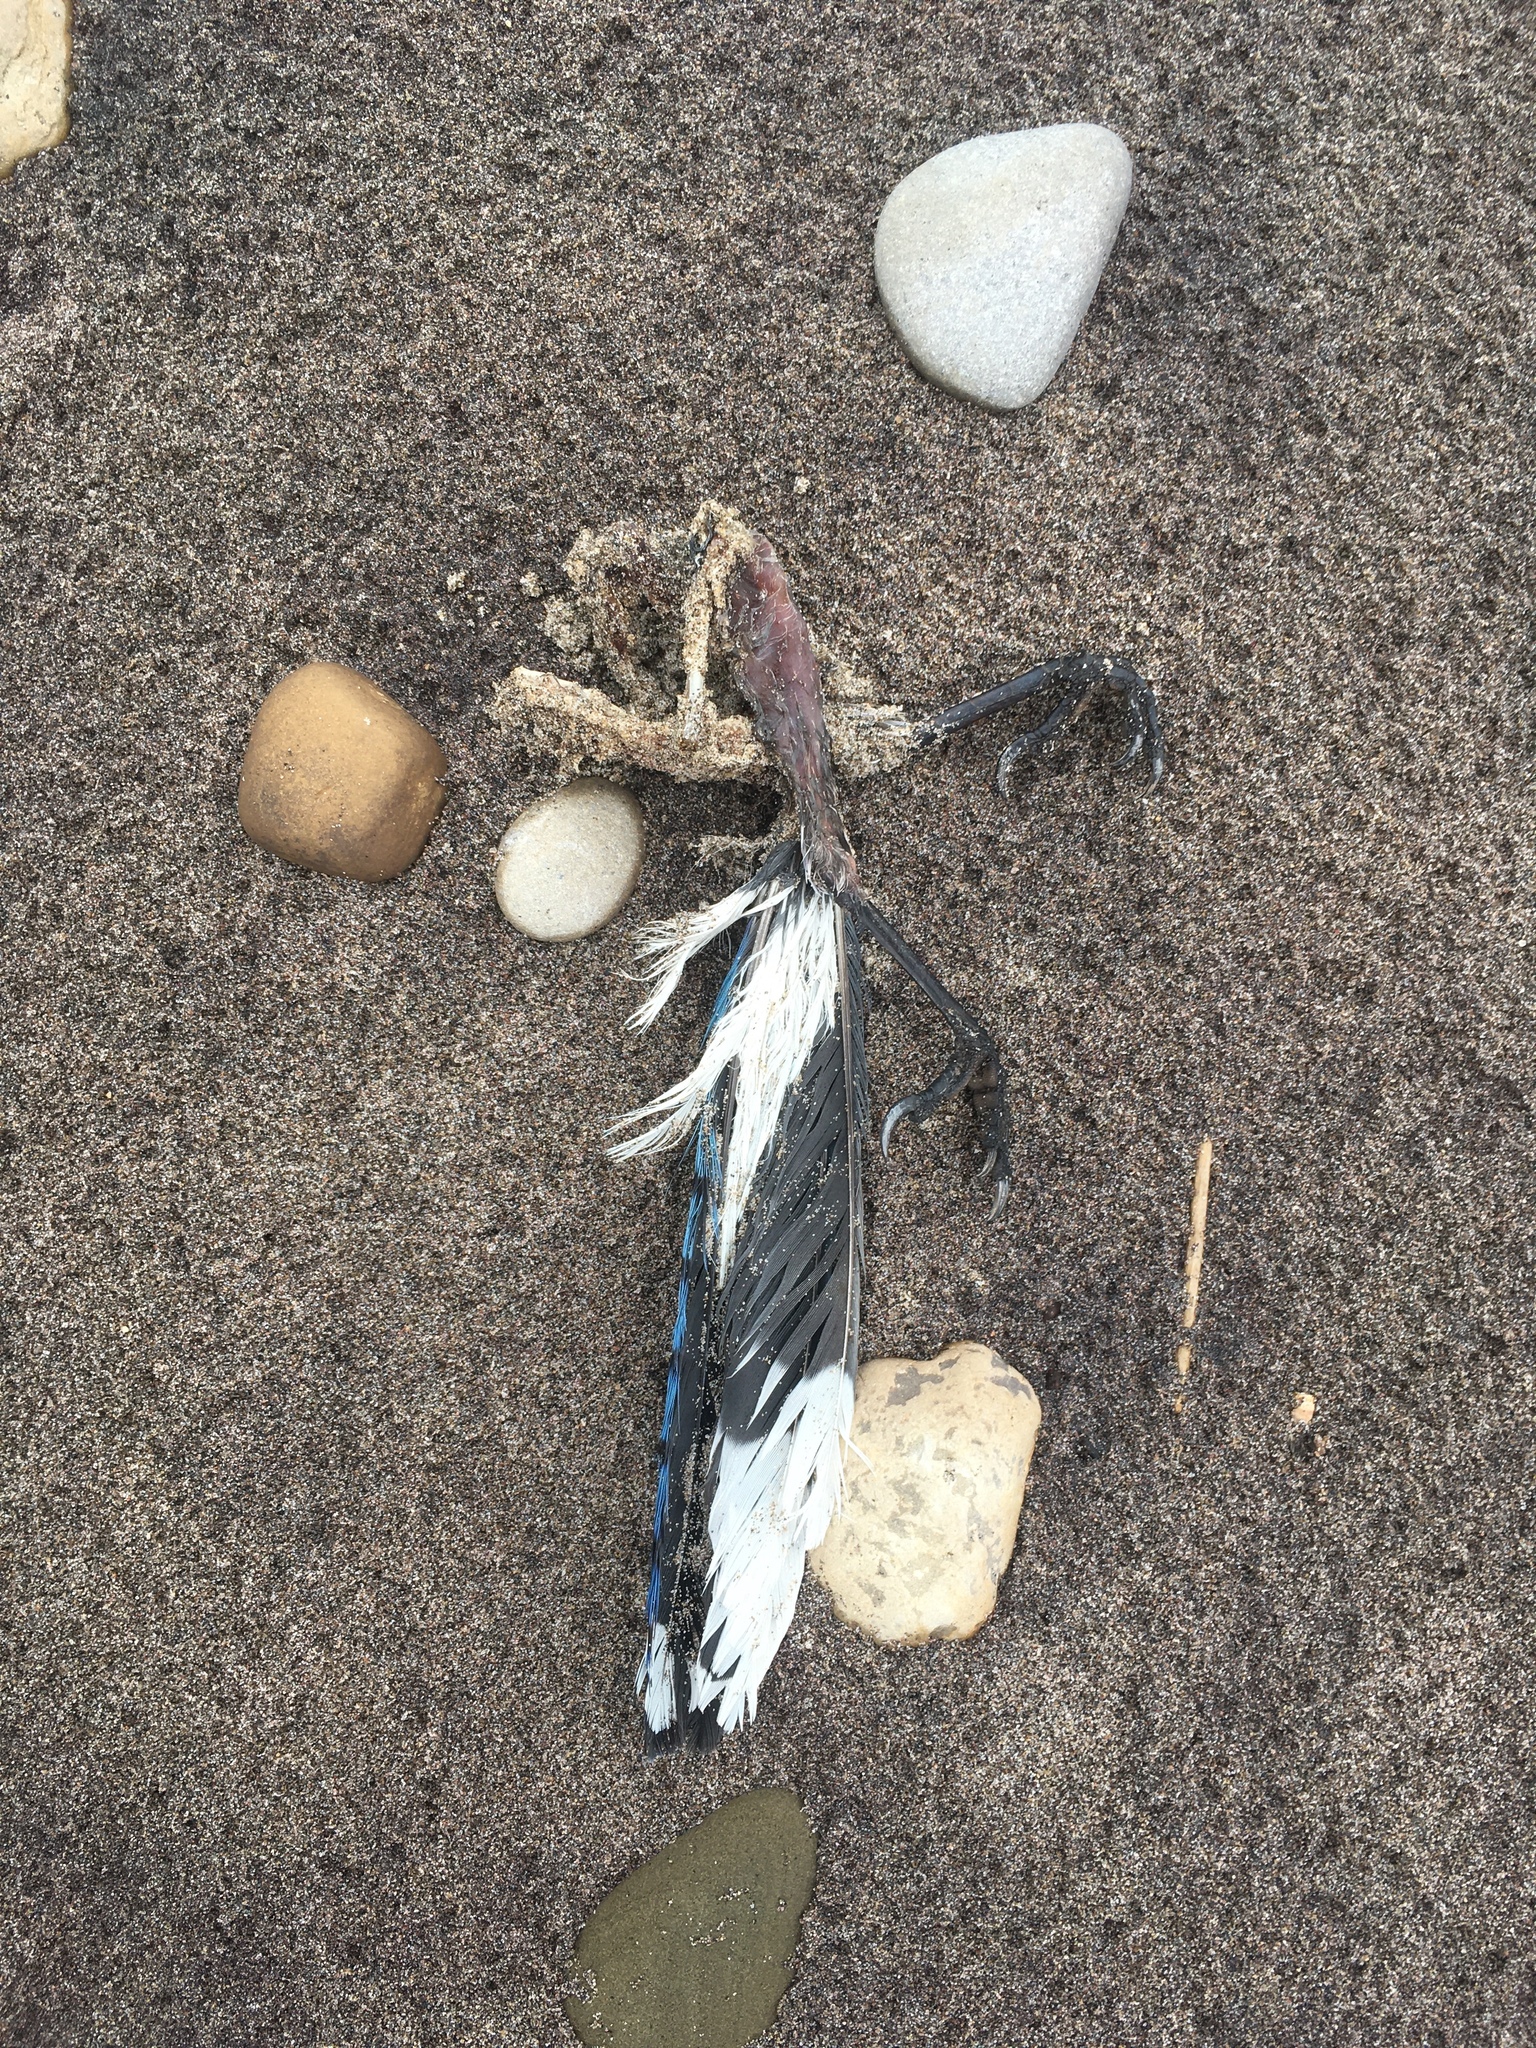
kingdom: Animalia
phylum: Chordata
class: Aves
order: Passeriformes
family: Corvidae
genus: Cyanocitta
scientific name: Cyanocitta cristata
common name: Blue jay
